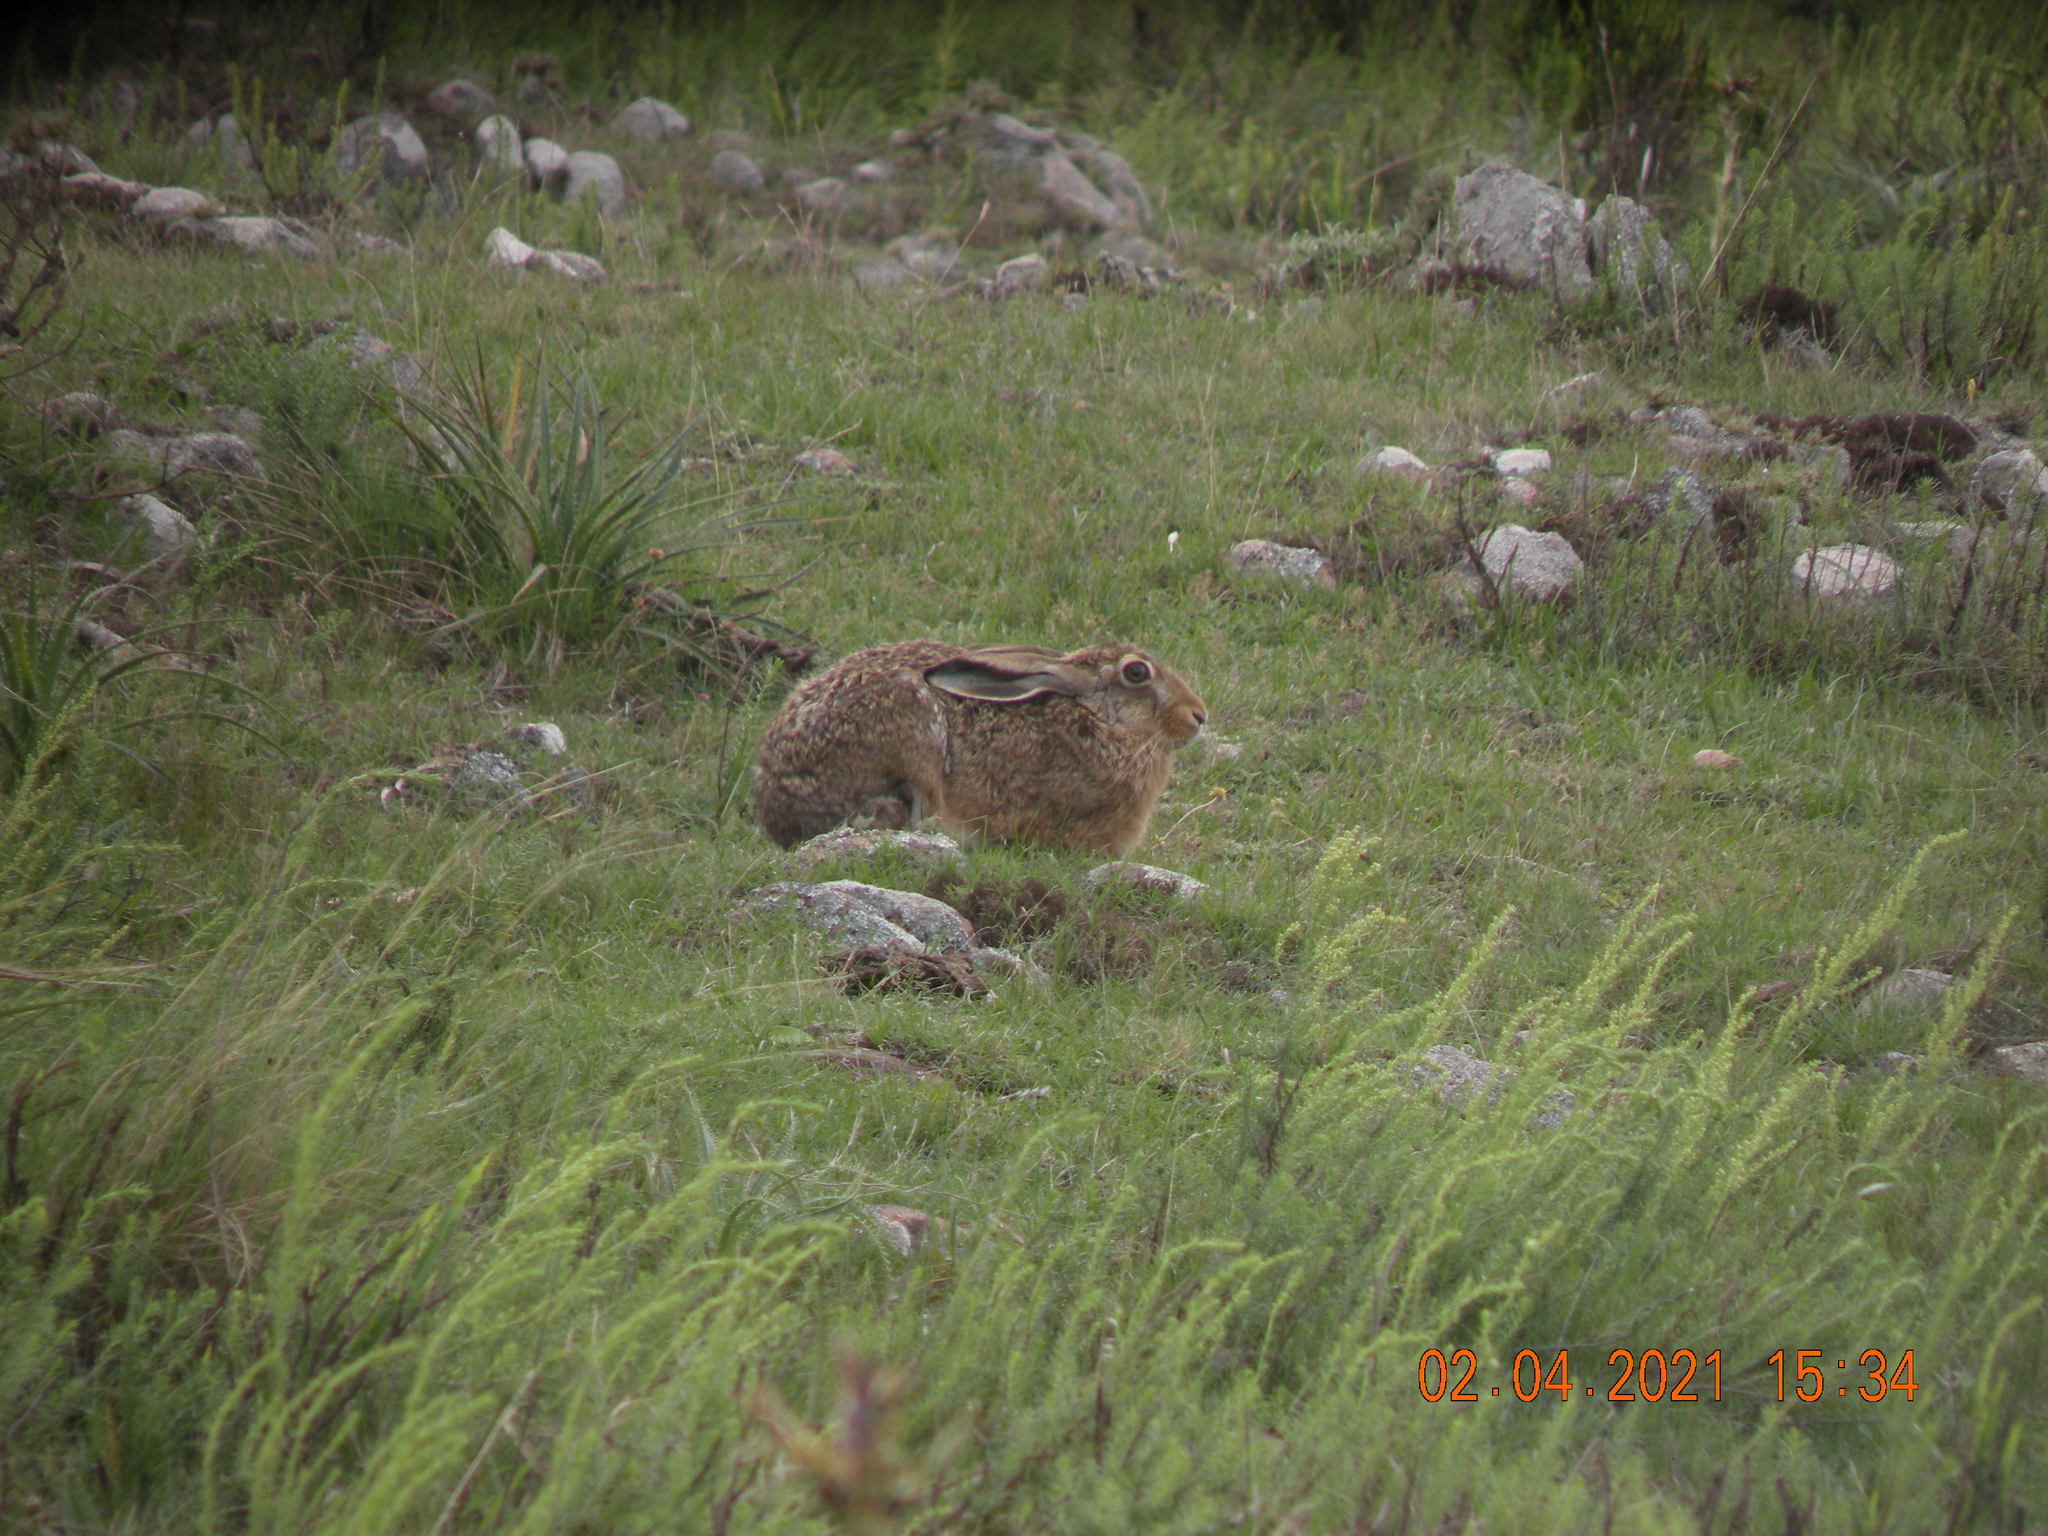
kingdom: Animalia
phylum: Chordata
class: Mammalia
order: Lagomorpha
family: Leporidae
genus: Lepus
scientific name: Lepus europaeus
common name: European hare
